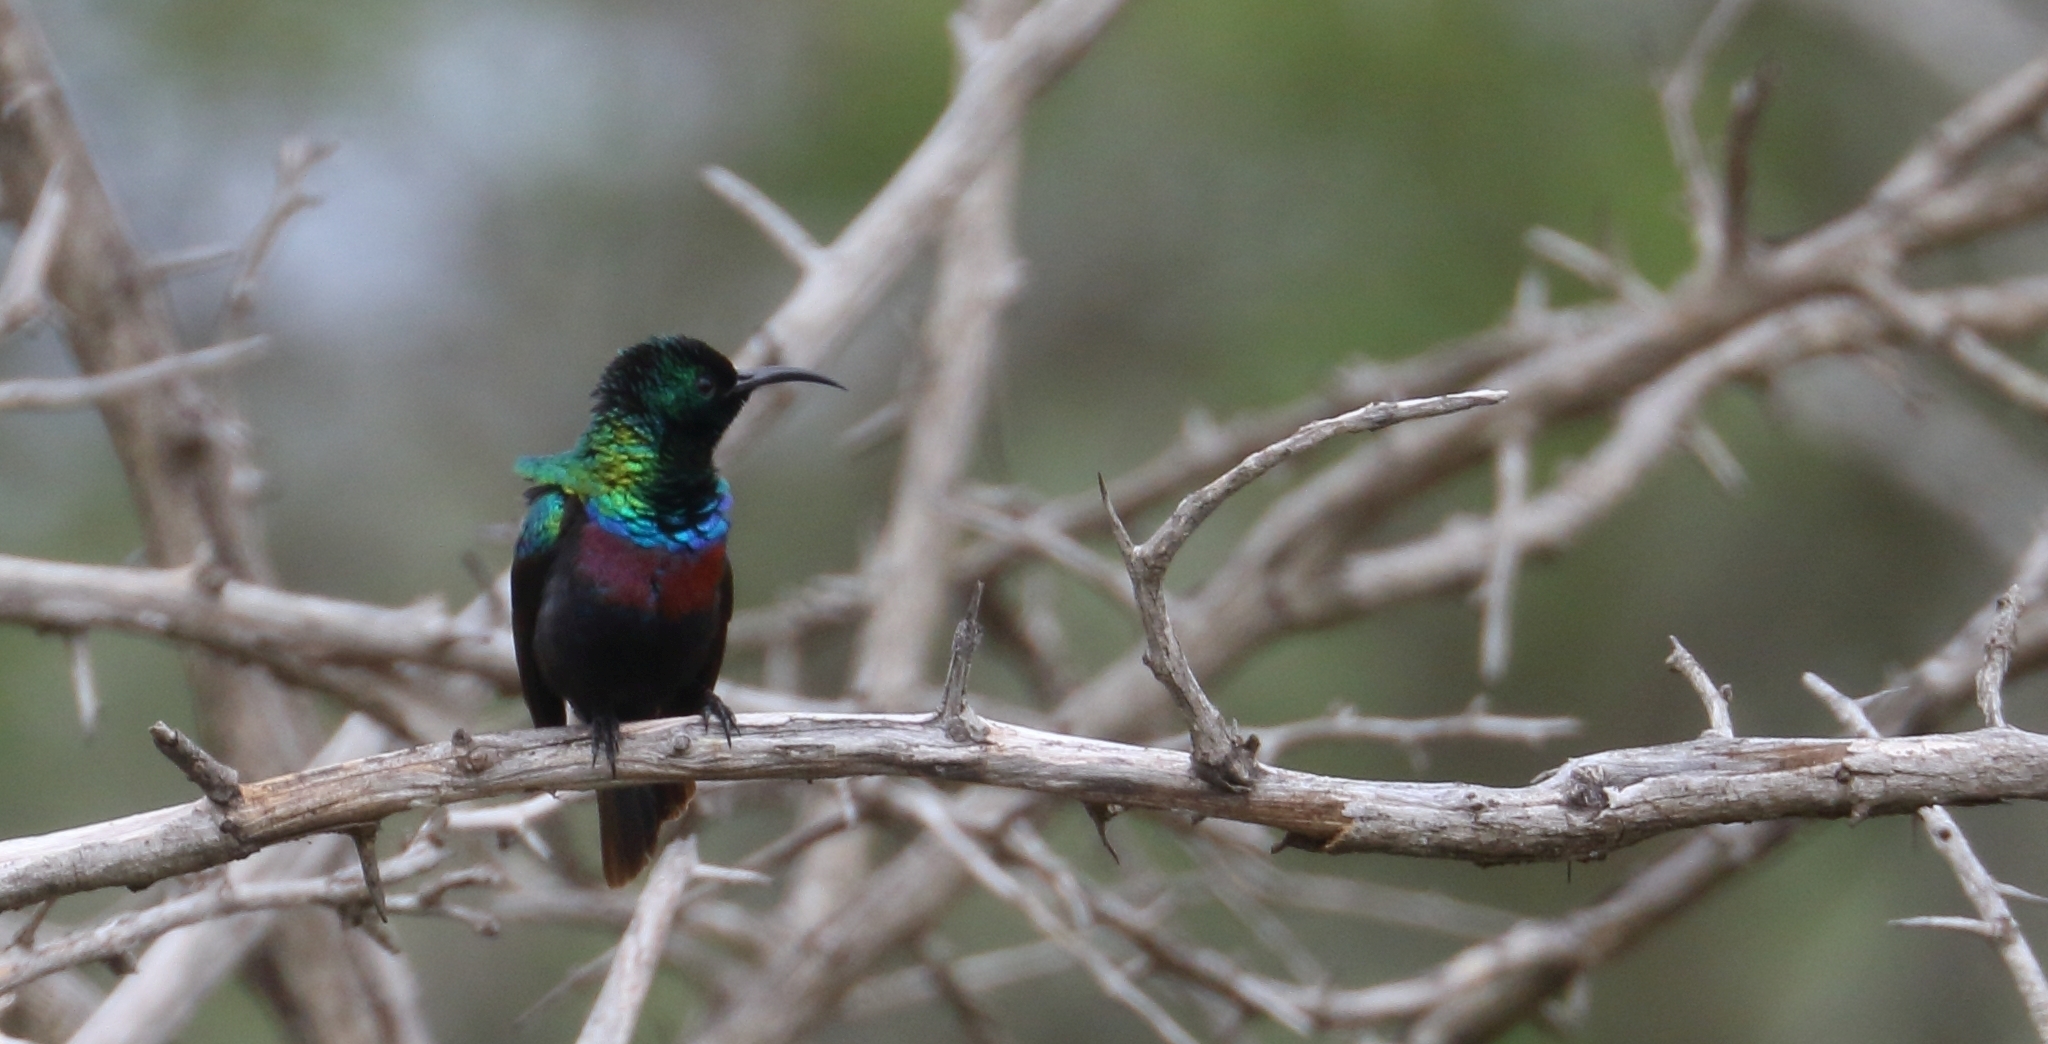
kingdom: Animalia
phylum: Chordata
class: Aves
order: Passeriformes
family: Nectariniidae
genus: Cinnyris
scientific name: Cinnyris bifasciatus
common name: Purple-banded sunbird
